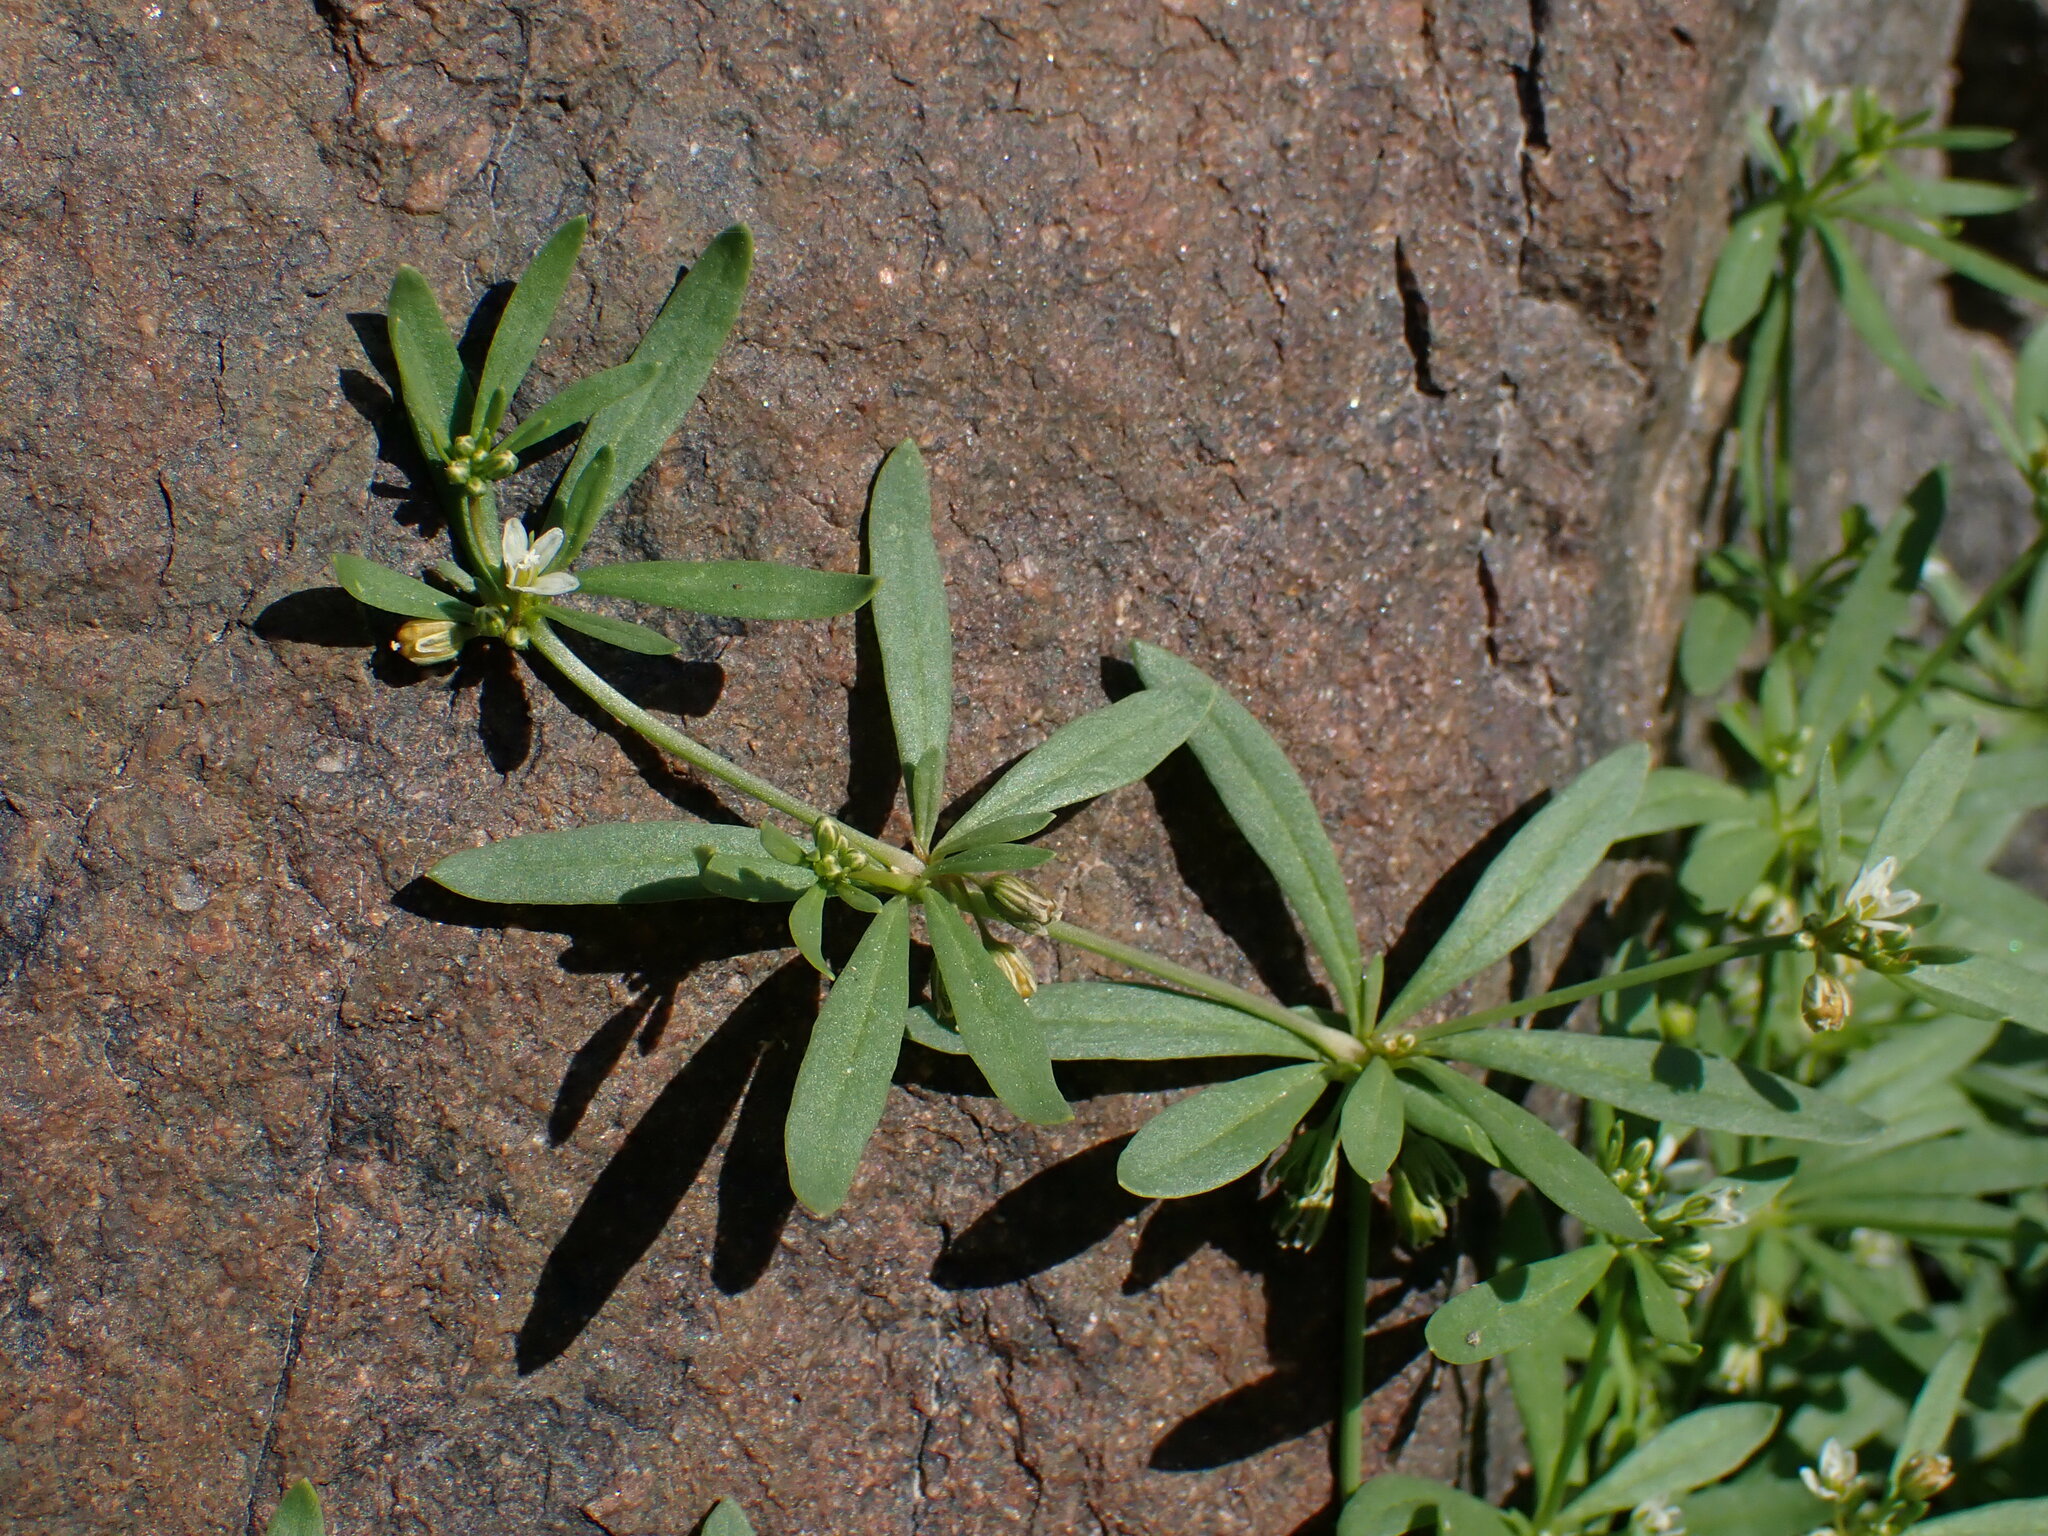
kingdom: Plantae
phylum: Tracheophyta
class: Magnoliopsida
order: Caryophyllales
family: Molluginaceae
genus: Mollugo
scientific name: Mollugo verticillata
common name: Green carpetweed
